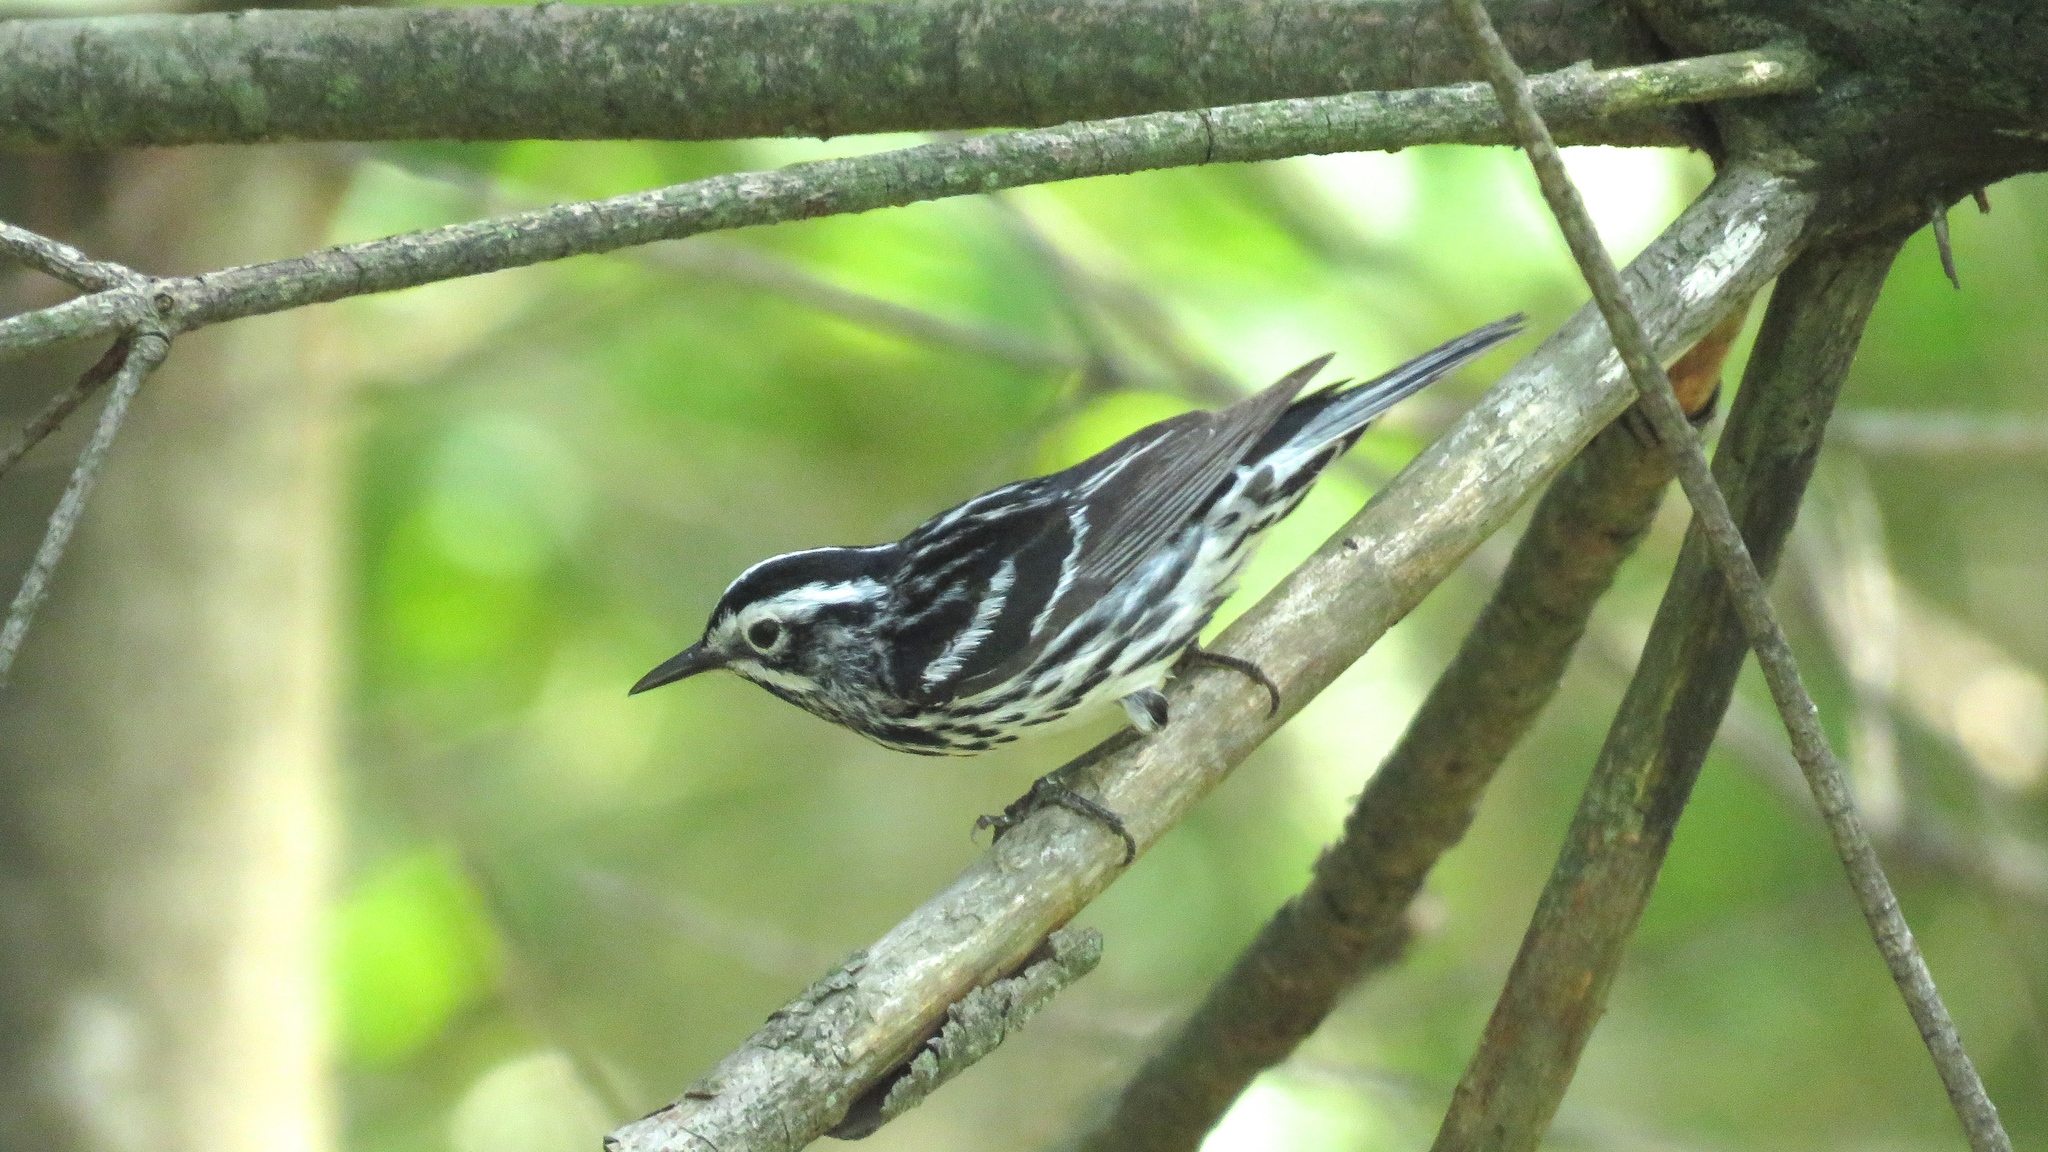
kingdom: Animalia
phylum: Chordata
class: Aves
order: Passeriformes
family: Parulidae
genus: Mniotilta
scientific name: Mniotilta varia
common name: Black-and-white warbler
